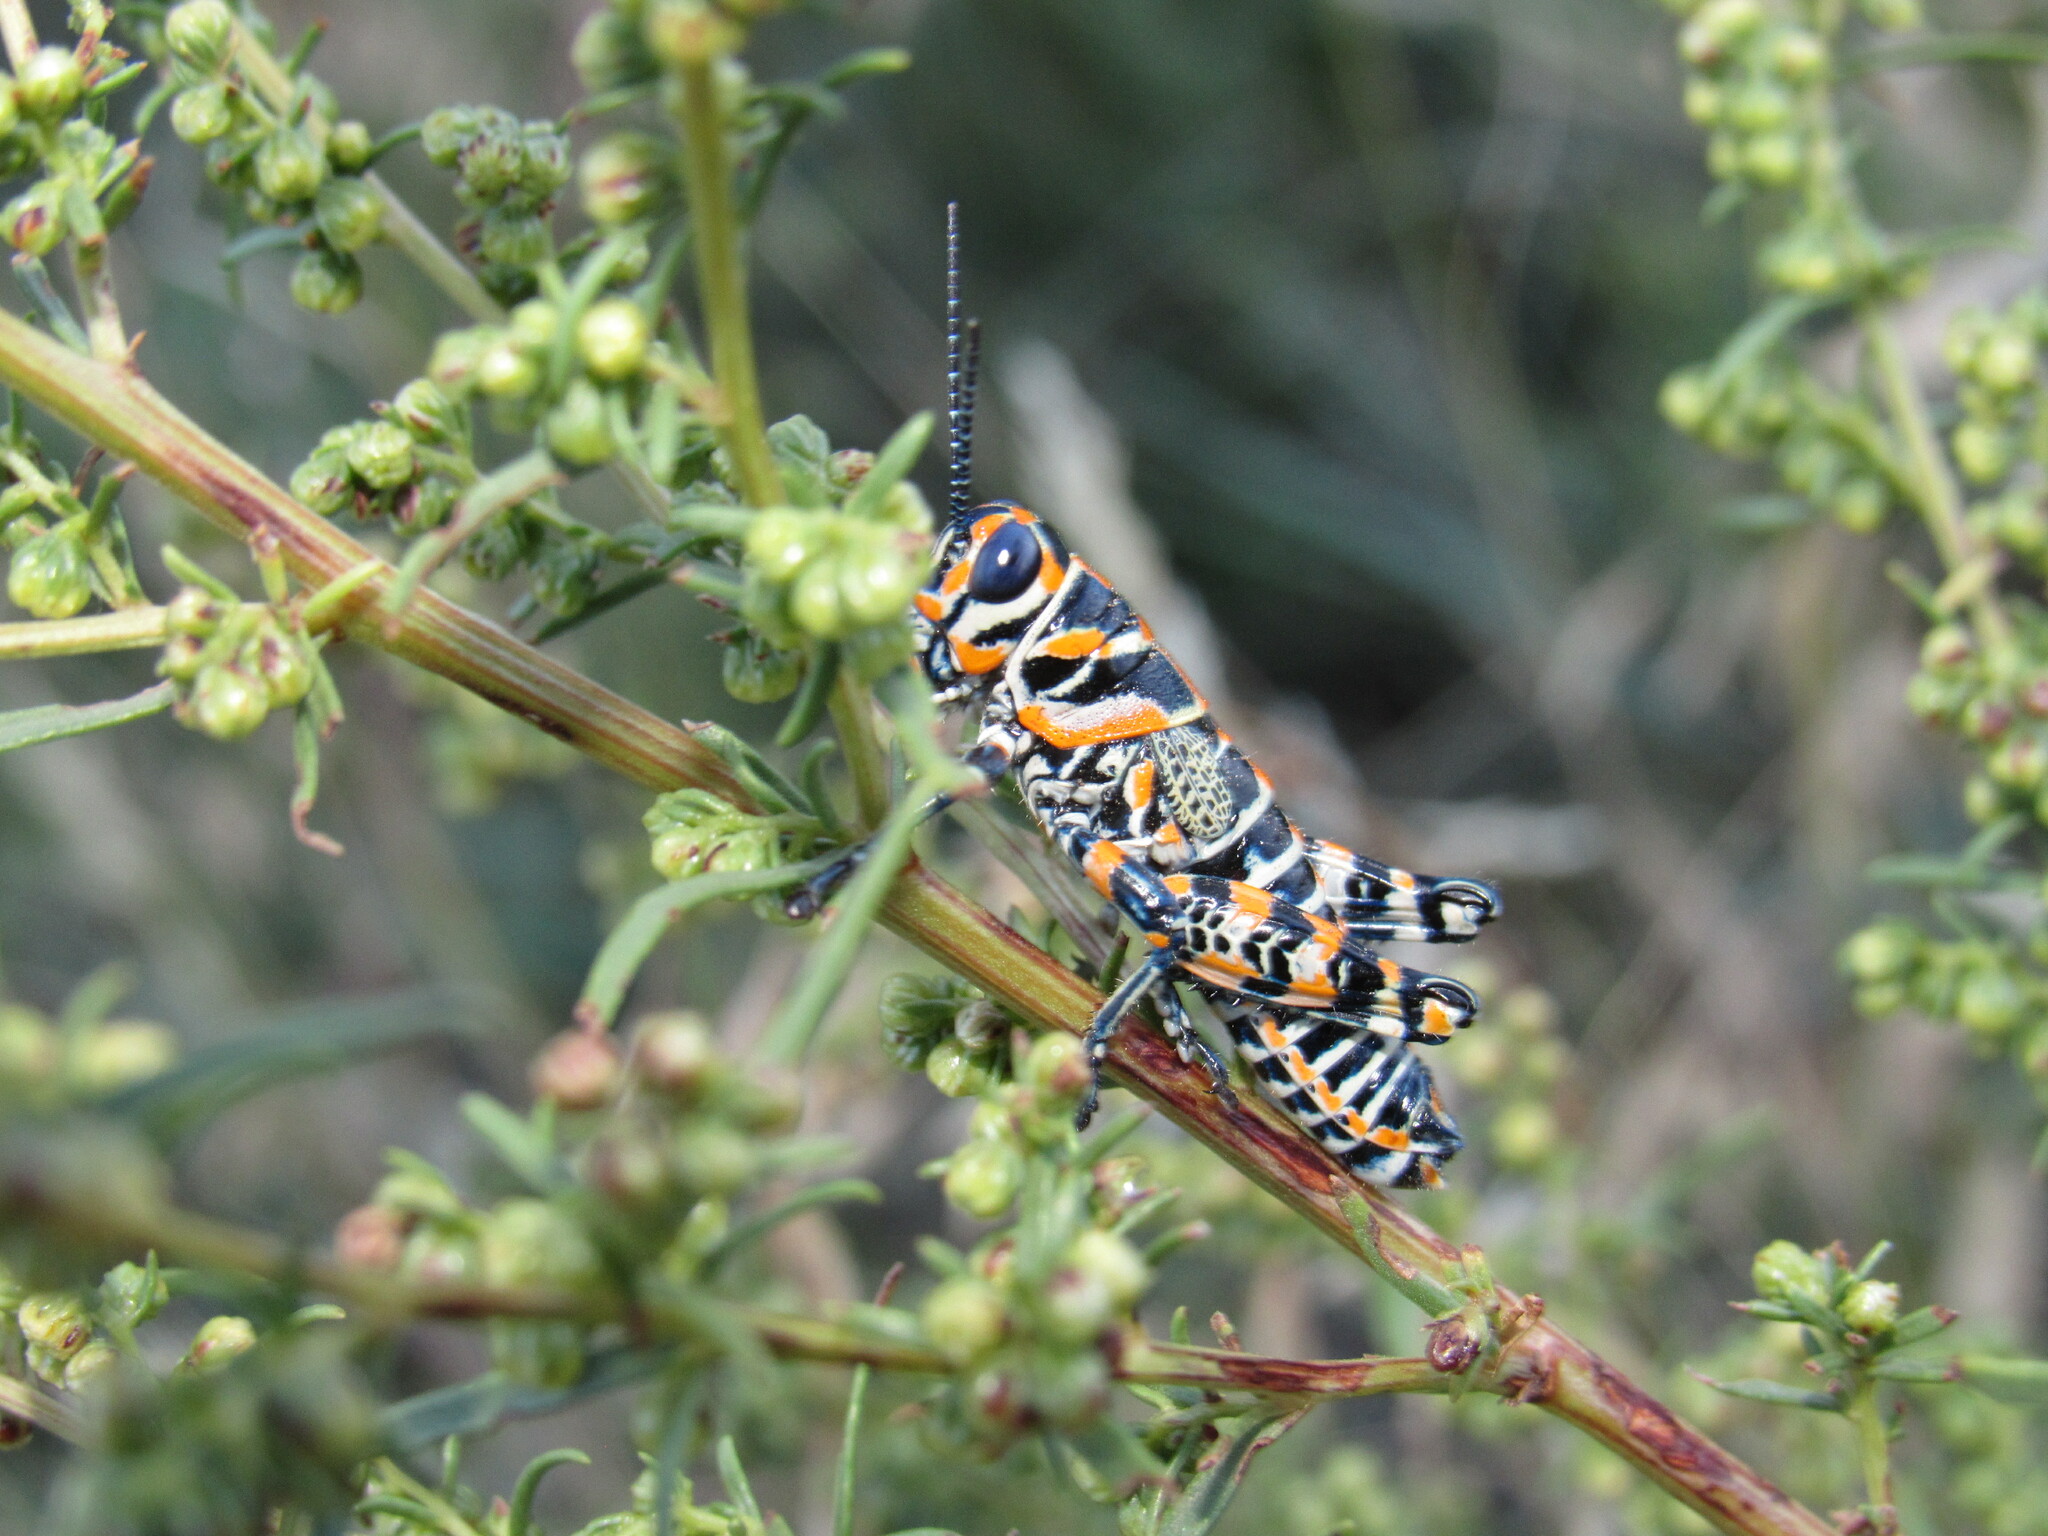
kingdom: Animalia
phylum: Arthropoda
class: Insecta
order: Orthoptera
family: Acrididae
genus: Dactylotum
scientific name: Dactylotum bicolor
